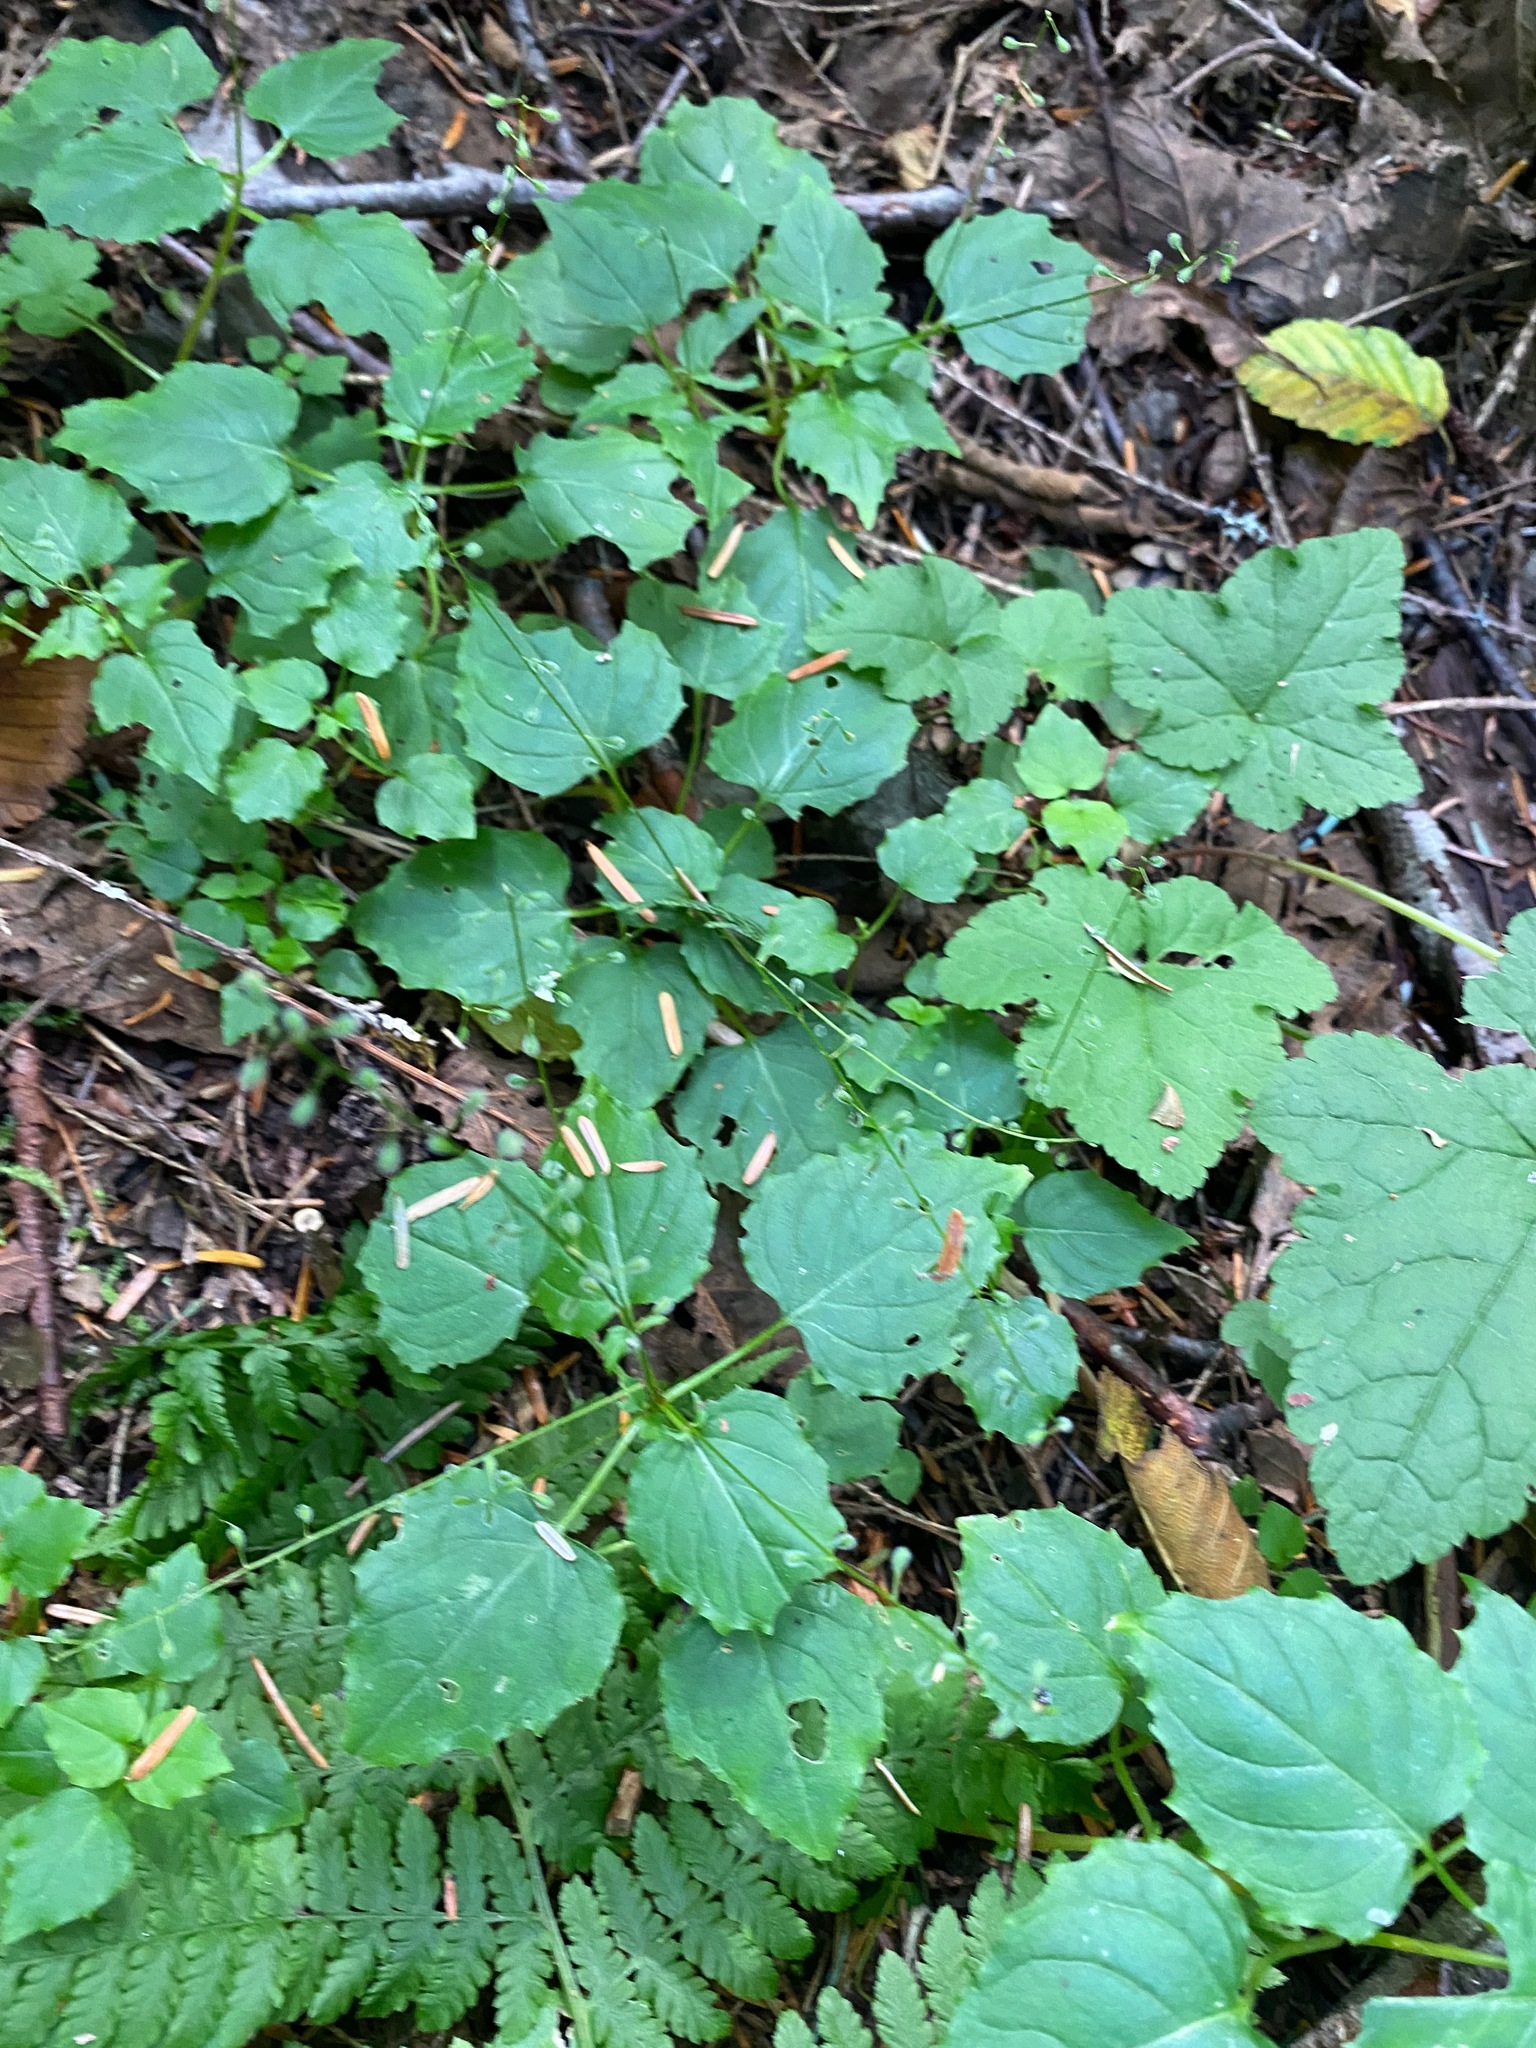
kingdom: Plantae
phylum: Tracheophyta
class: Magnoliopsida
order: Myrtales
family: Onagraceae
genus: Circaea
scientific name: Circaea alpina
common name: Alpine enchanter's-nightshade
